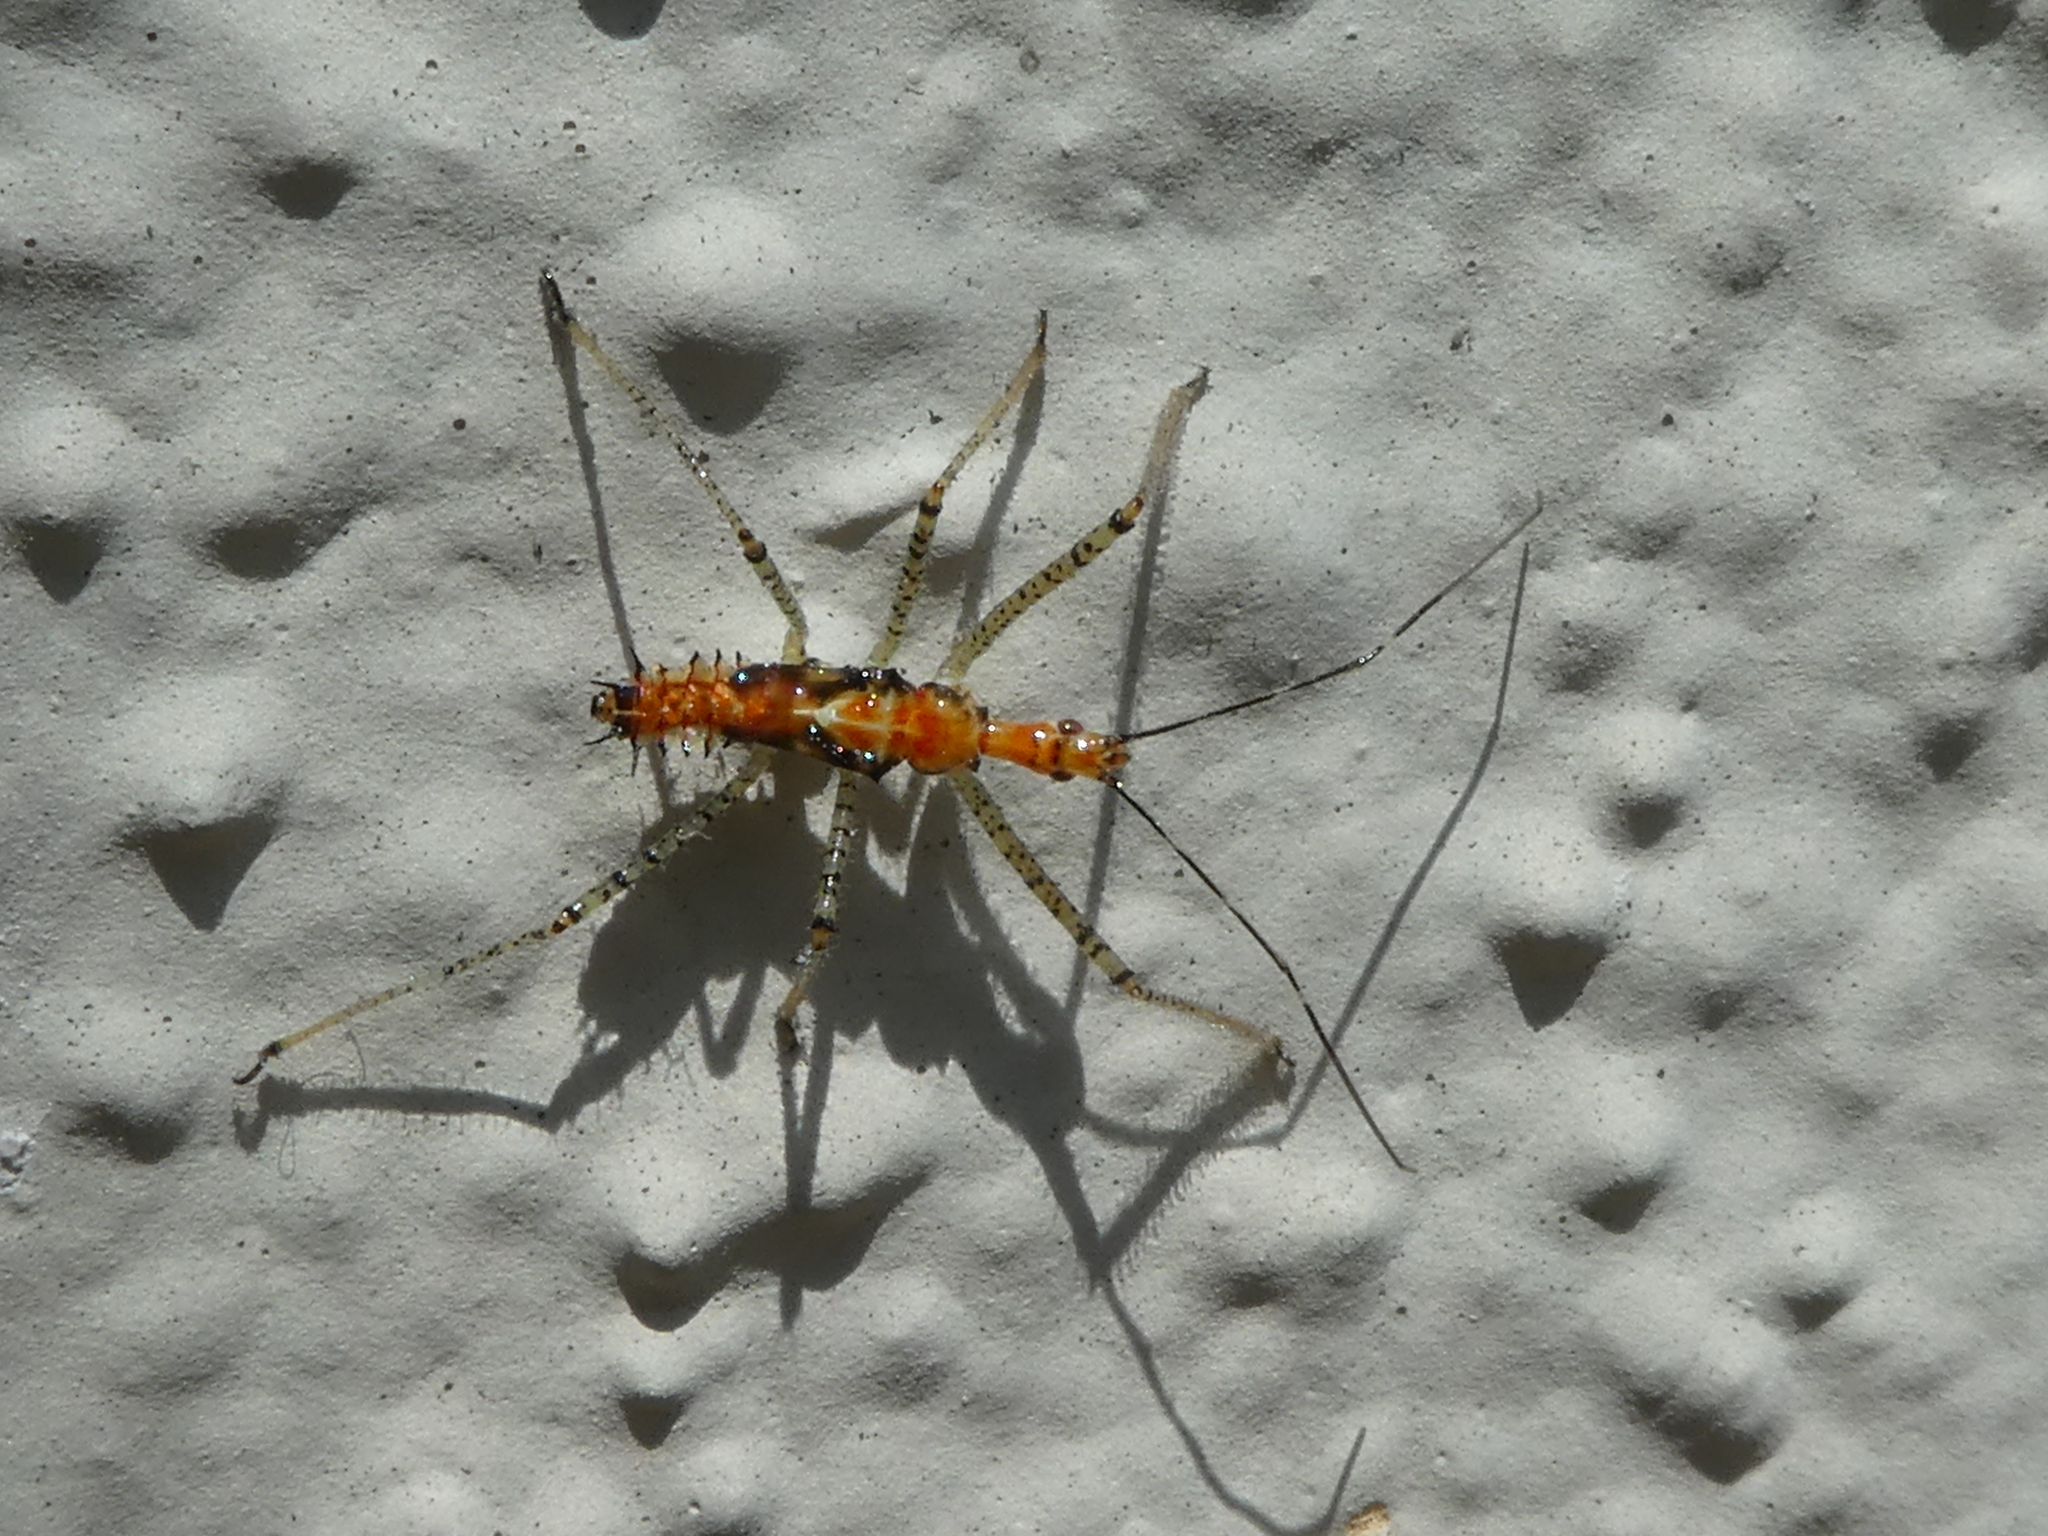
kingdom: Animalia
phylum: Arthropoda
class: Insecta
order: Hemiptera
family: Reduviidae
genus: Zelus
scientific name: Zelus renardii
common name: Assassin bug
